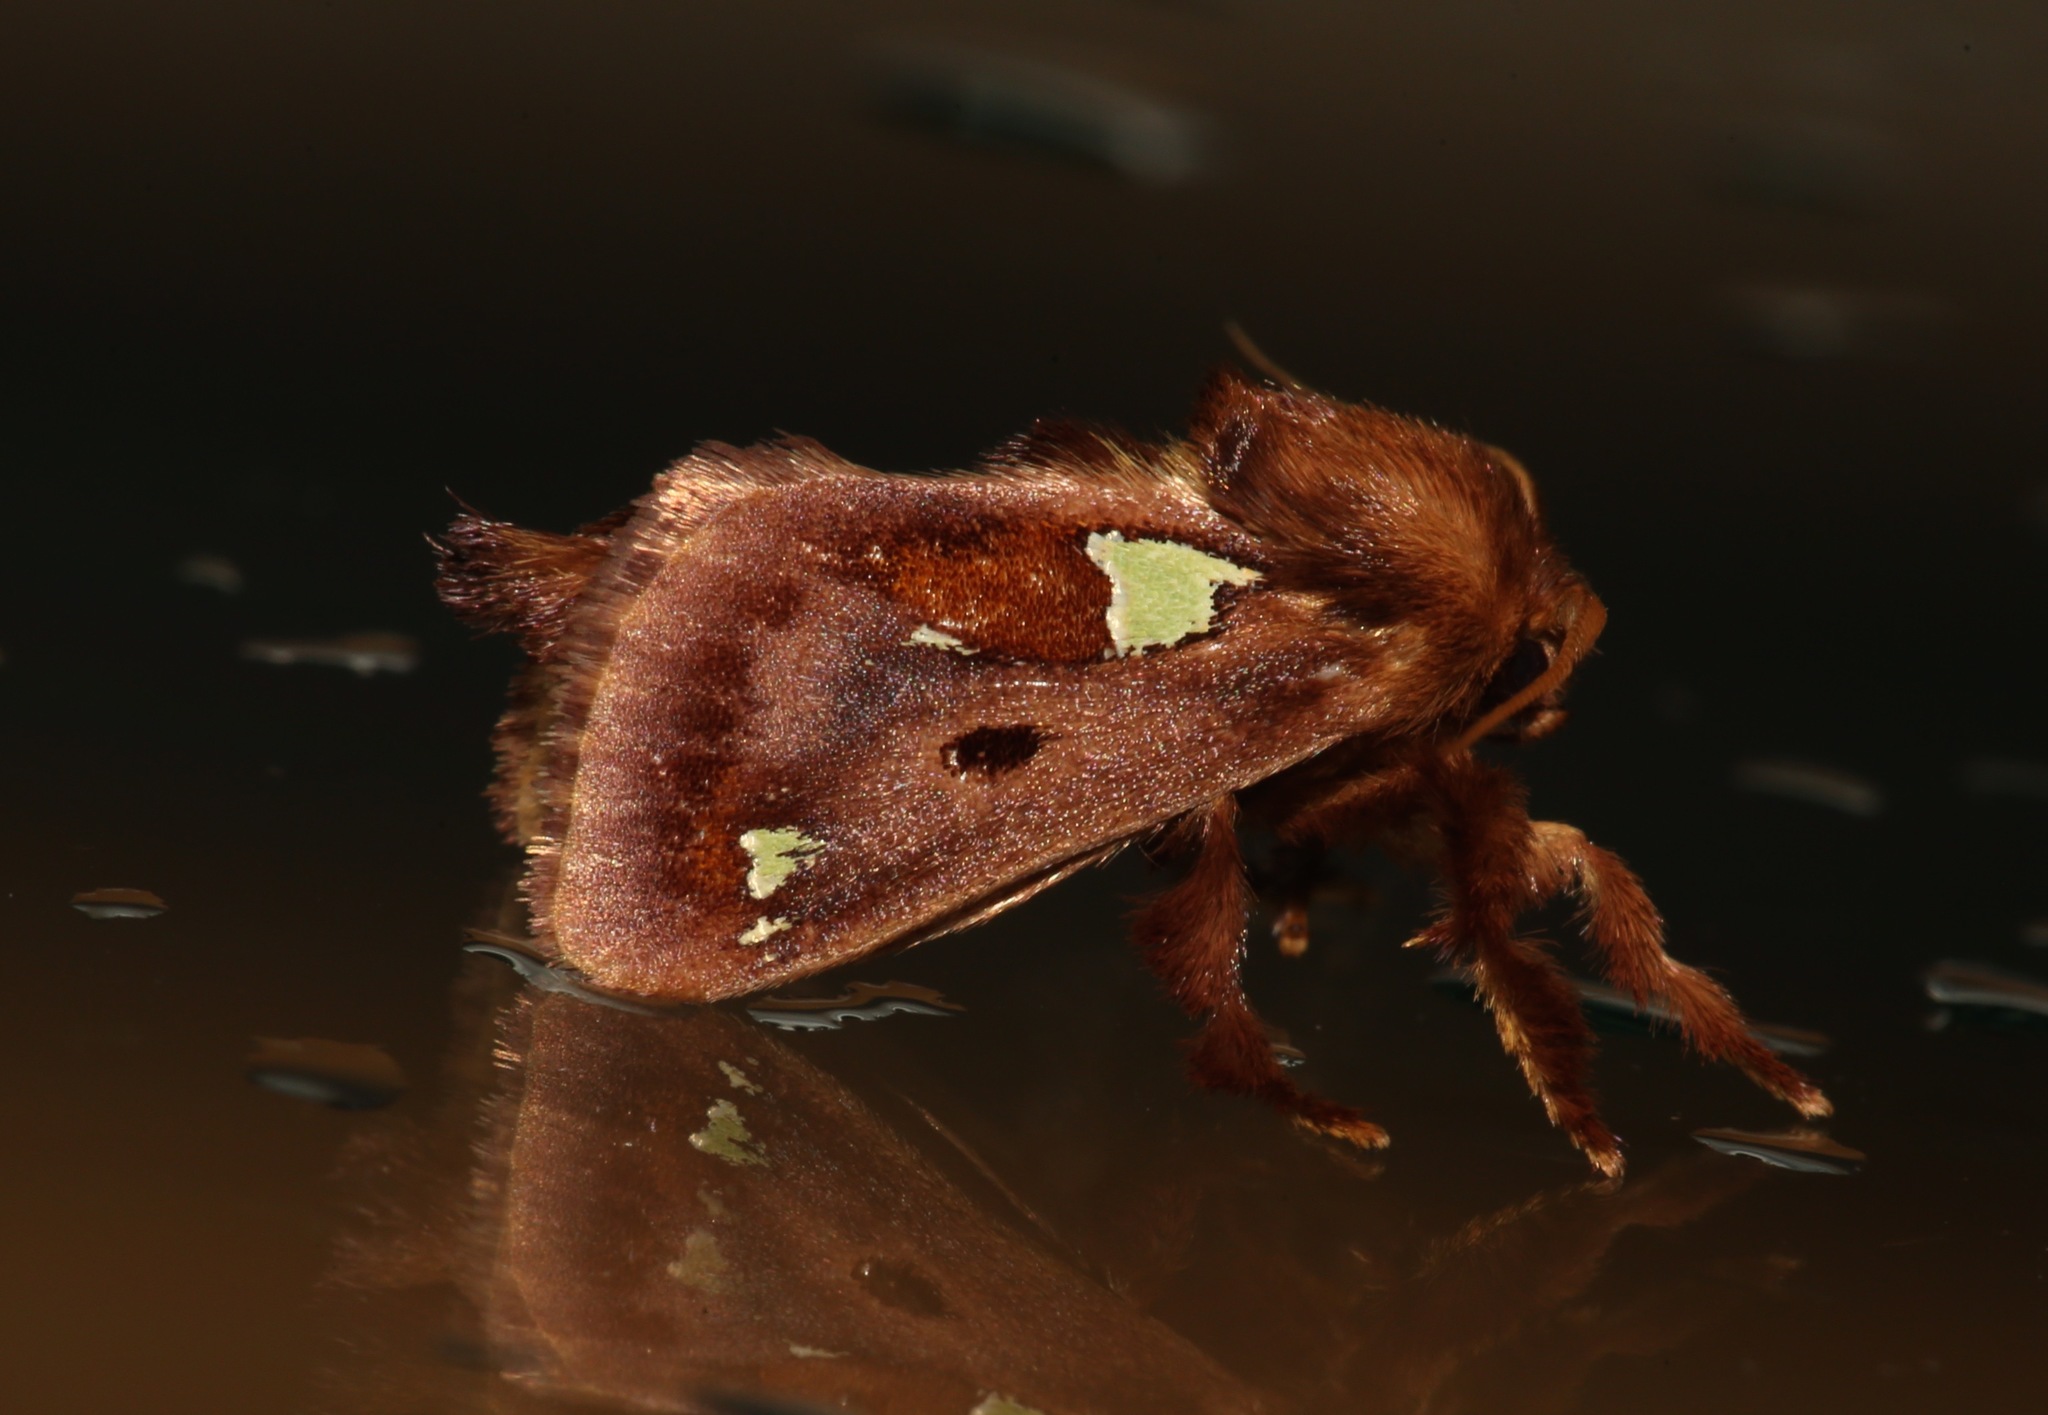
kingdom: Animalia
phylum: Arthropoda
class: Insecta
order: Lepidoptera
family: Limacodidae
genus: Euclea
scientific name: Euclea delphinii
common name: Spiny oak-slug moth
